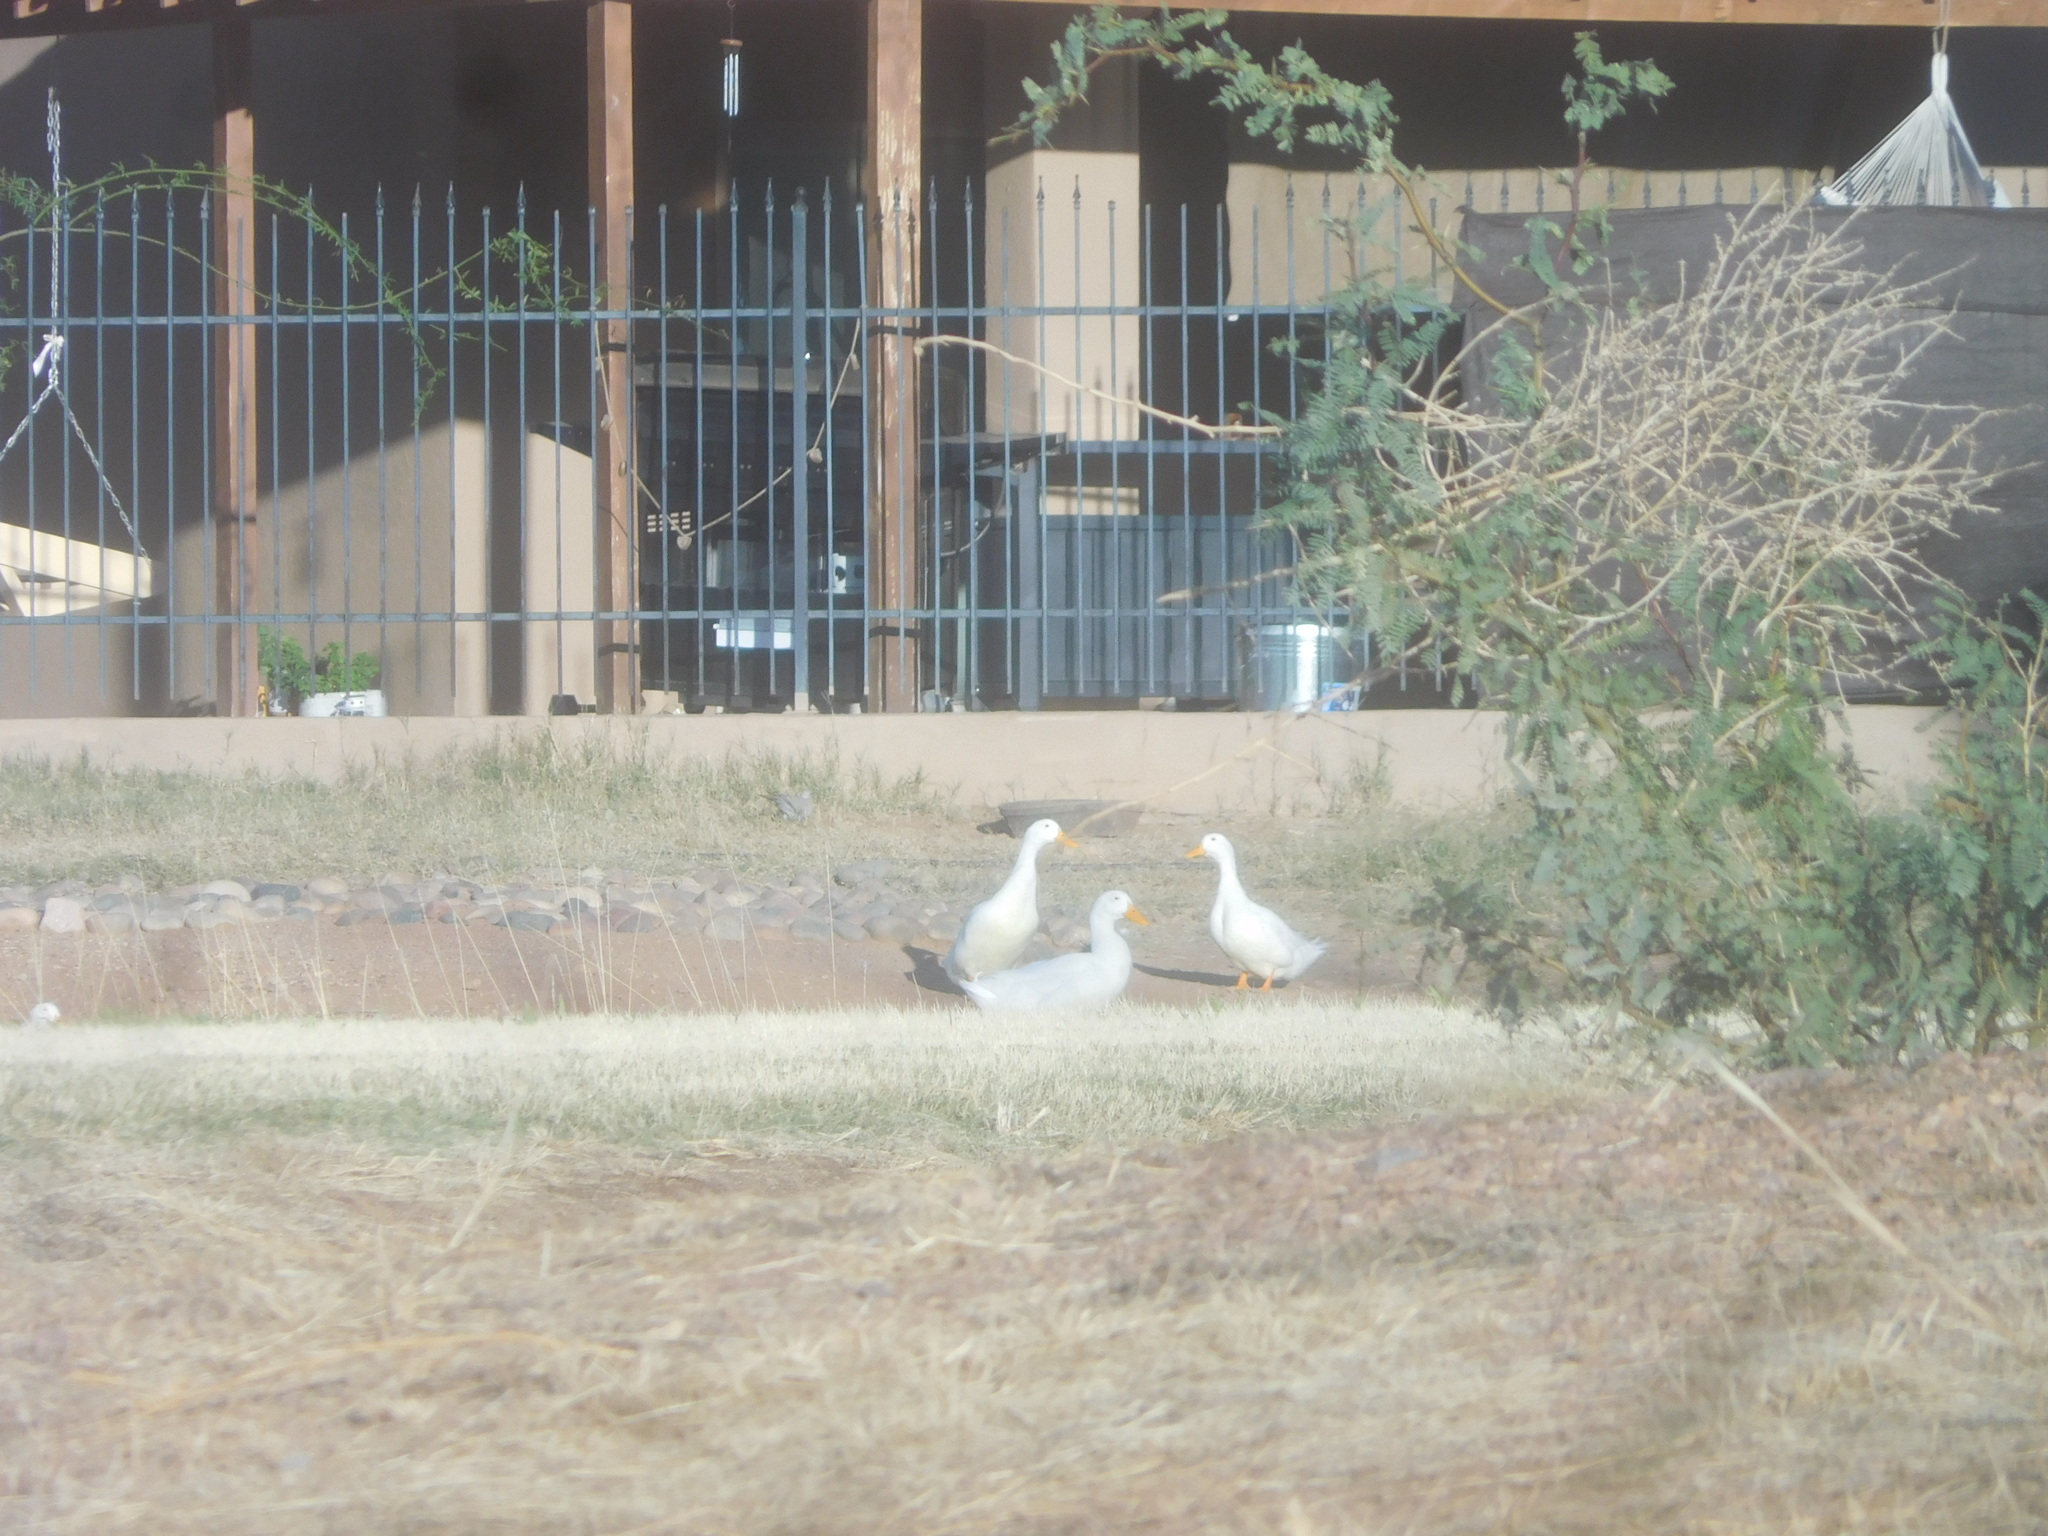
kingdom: Animalia
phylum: Chordata
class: Aves
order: Anseriformes
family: Anatidae
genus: Anas
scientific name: Anas platyrhynchos
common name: Mallard
